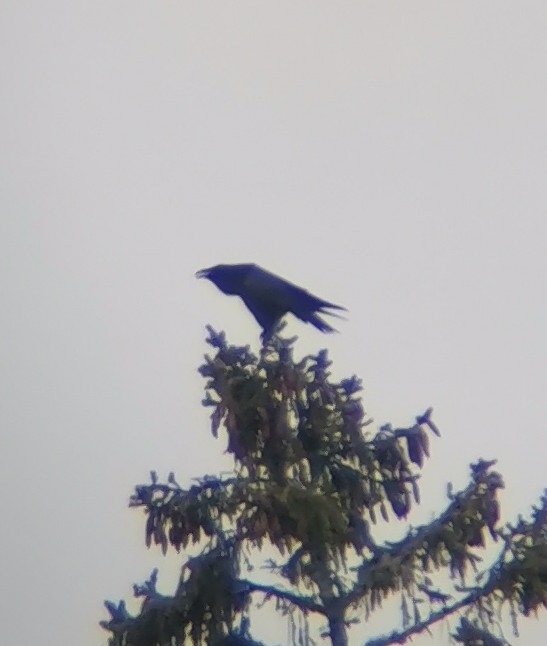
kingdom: Animalia
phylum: Chordata
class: Aves
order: Passeriformes
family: Corvidae
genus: Corvus
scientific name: Corvus corax
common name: Common raven
